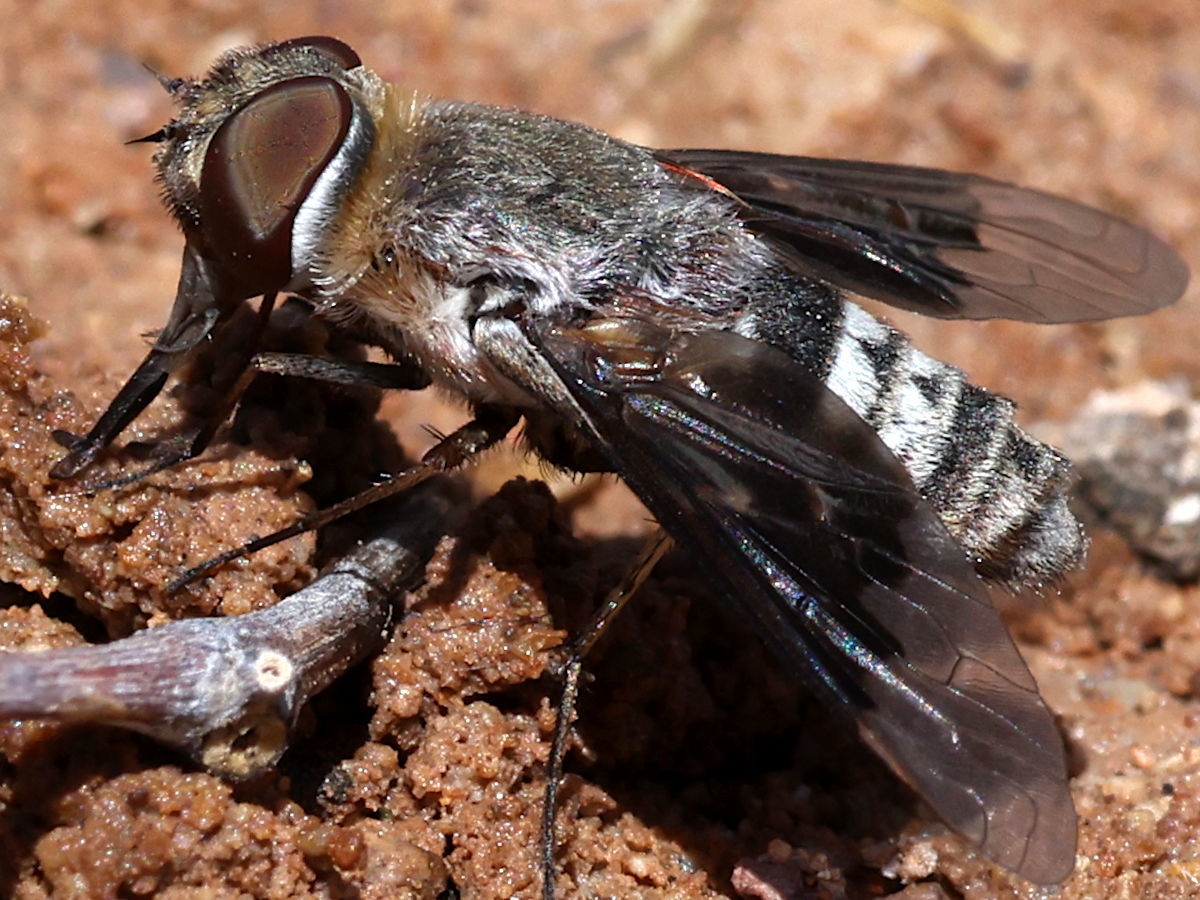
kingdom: Animalia
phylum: Arthropoda
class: Insecta
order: Diptera
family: Bombyliidae
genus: Thyridanthrax
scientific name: Thyridanthrax selene
